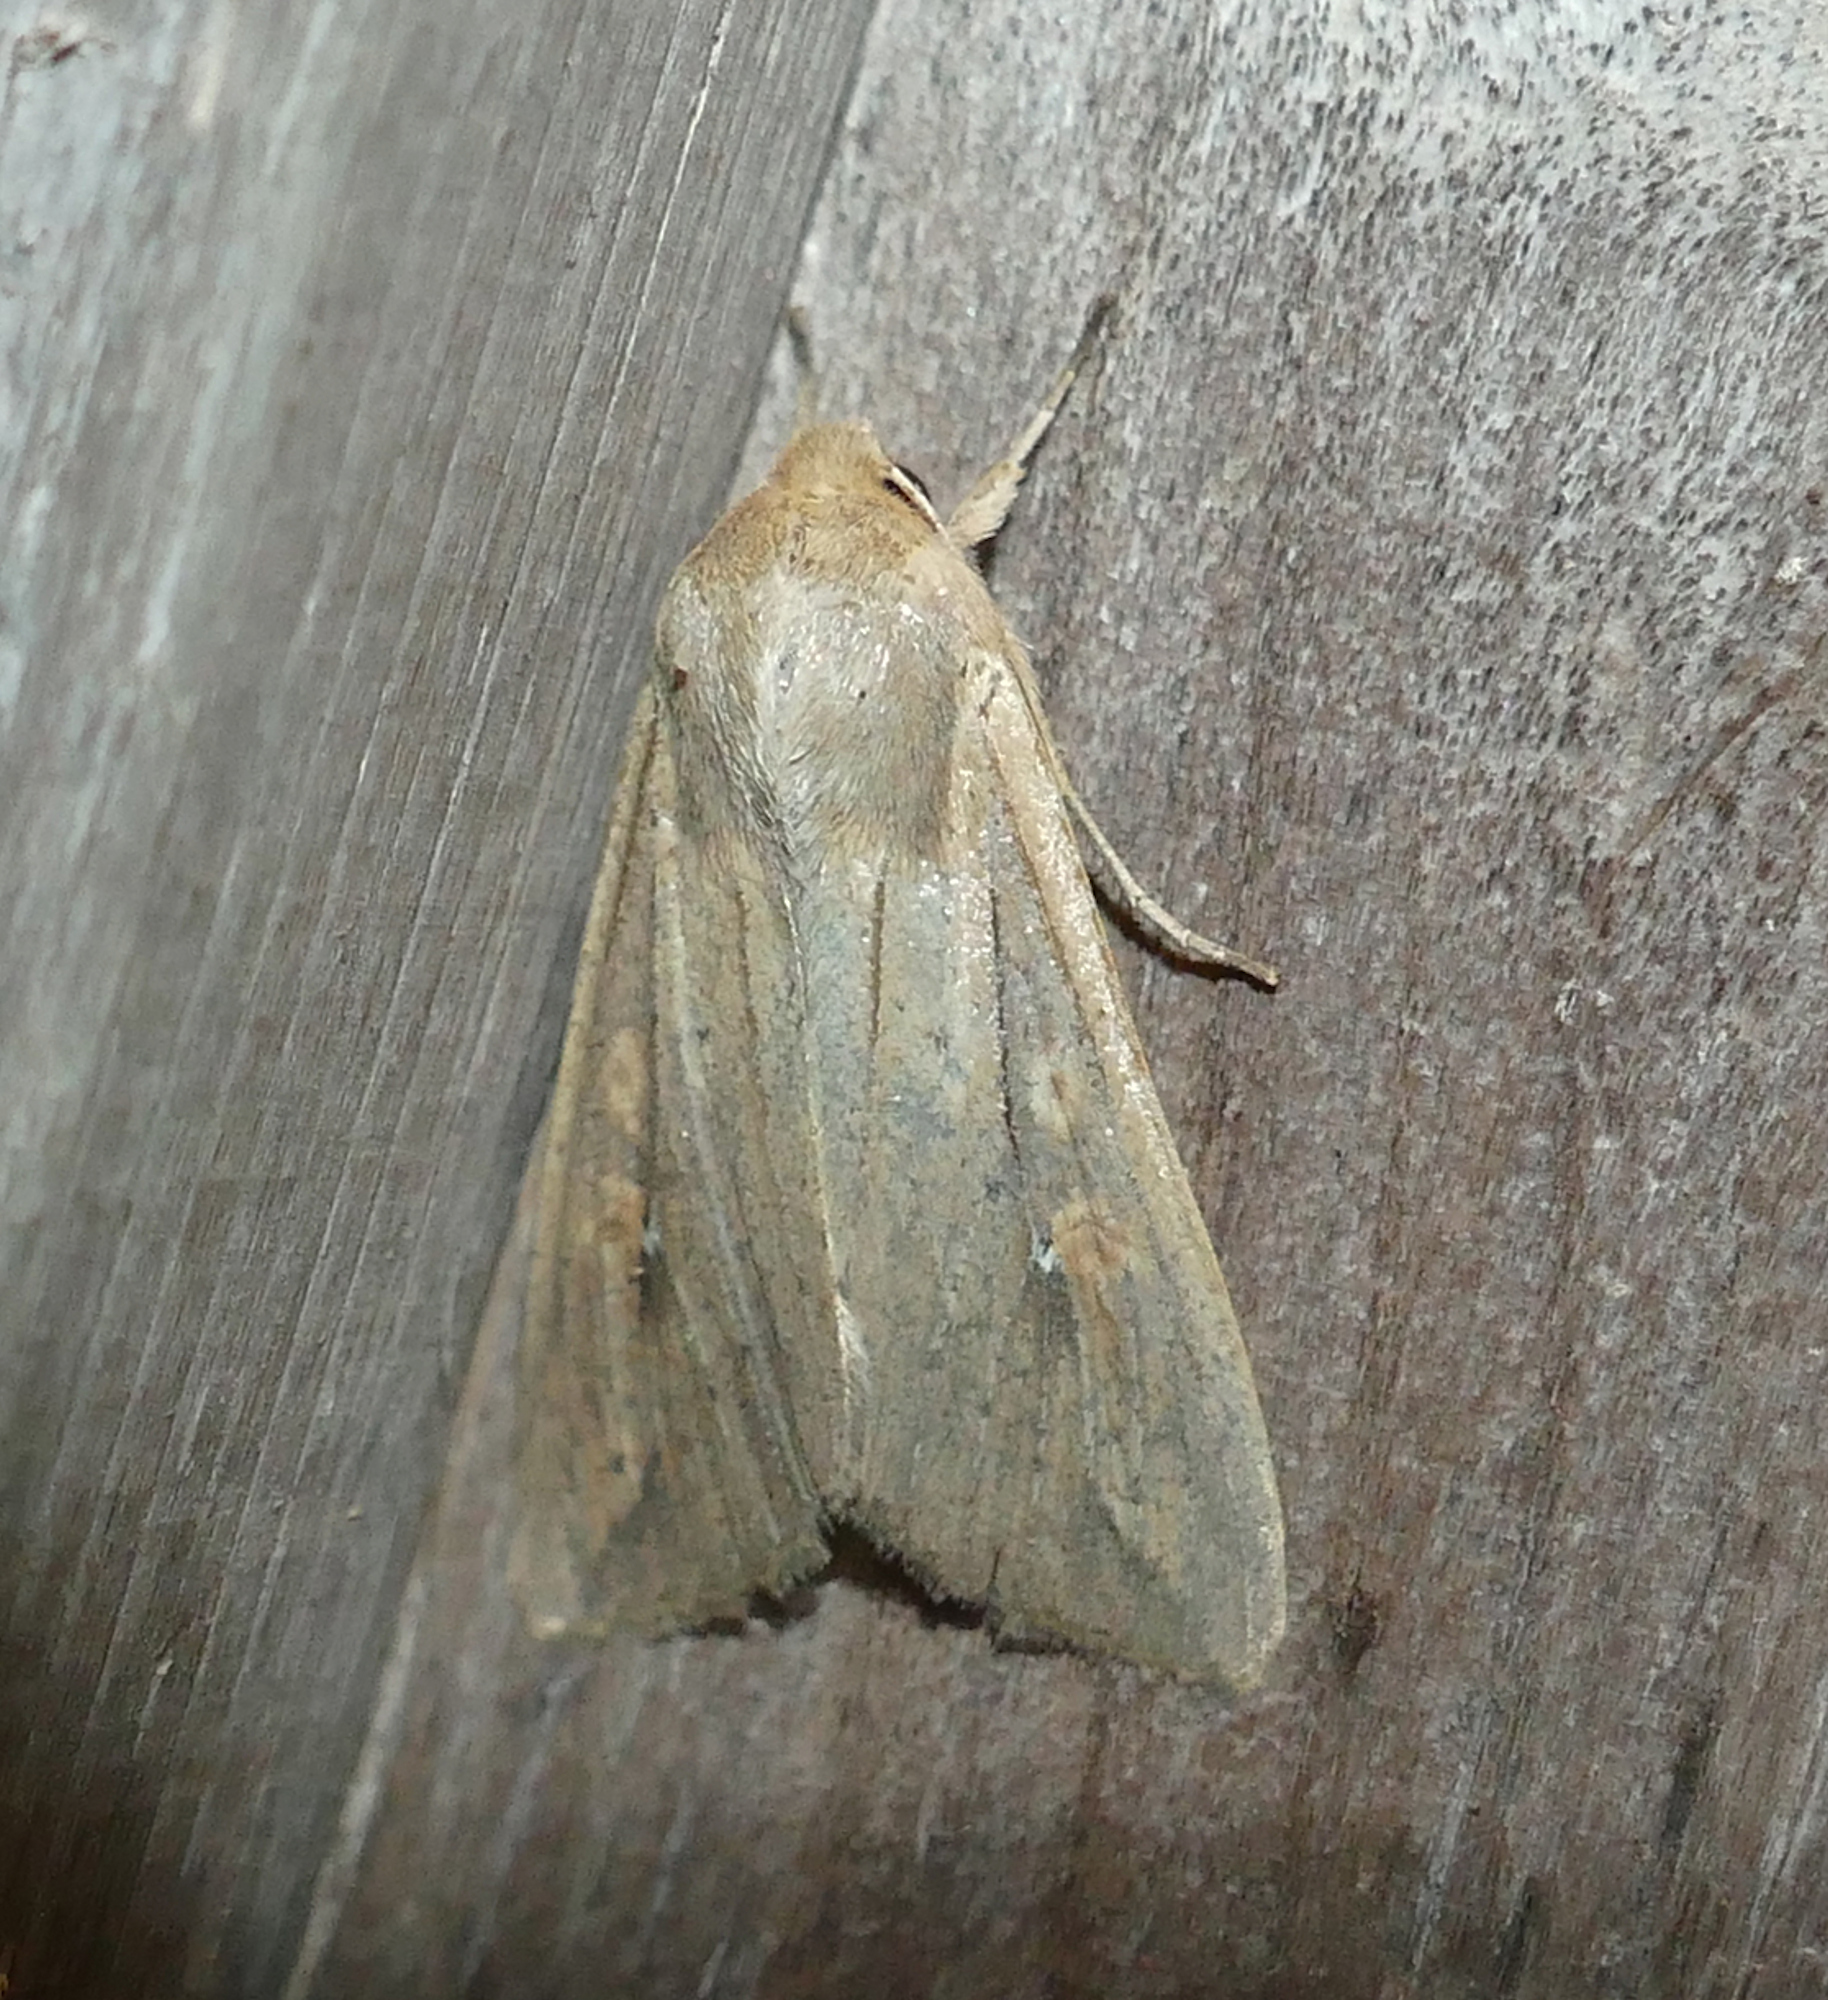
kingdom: Animalia
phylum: Arthropoda
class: Insecta
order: Lepidoptera
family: Noctuidae
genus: Mythimna
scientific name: Mythimna unipuncta
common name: White-speck
